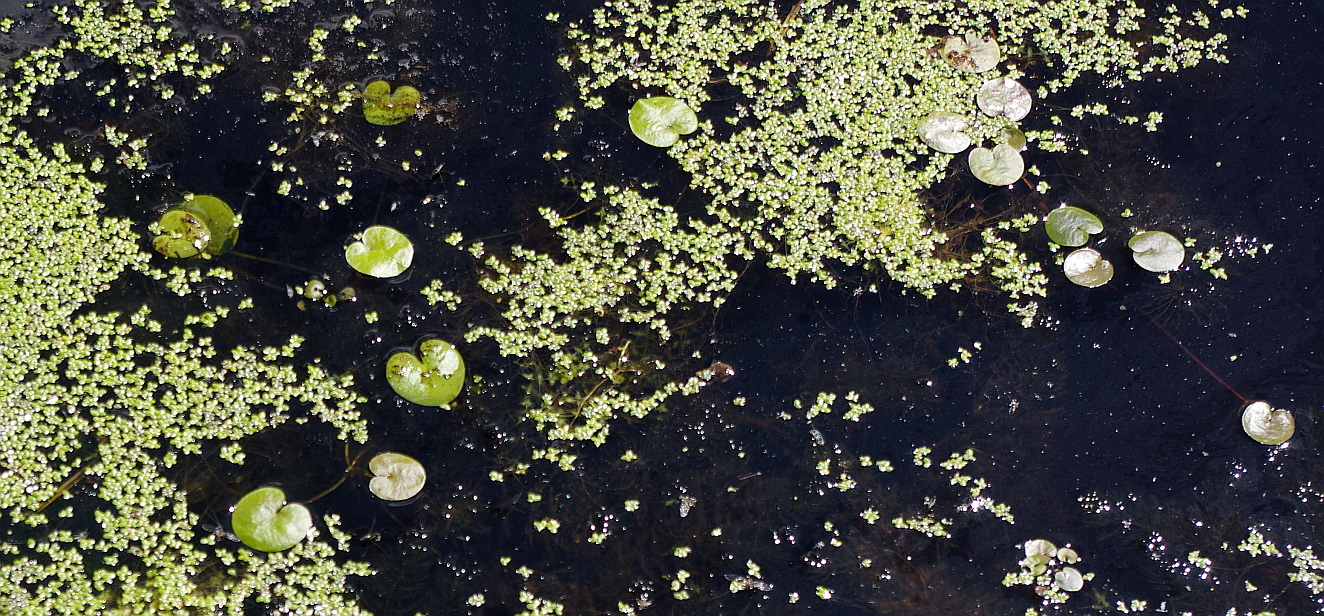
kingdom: Plantae
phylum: Tracheophyta
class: Liliopsida
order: Alismatales
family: Hydrocharitaceae
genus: Hydrocharis
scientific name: Hydrocharis morsus-ranae
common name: Frogbit
